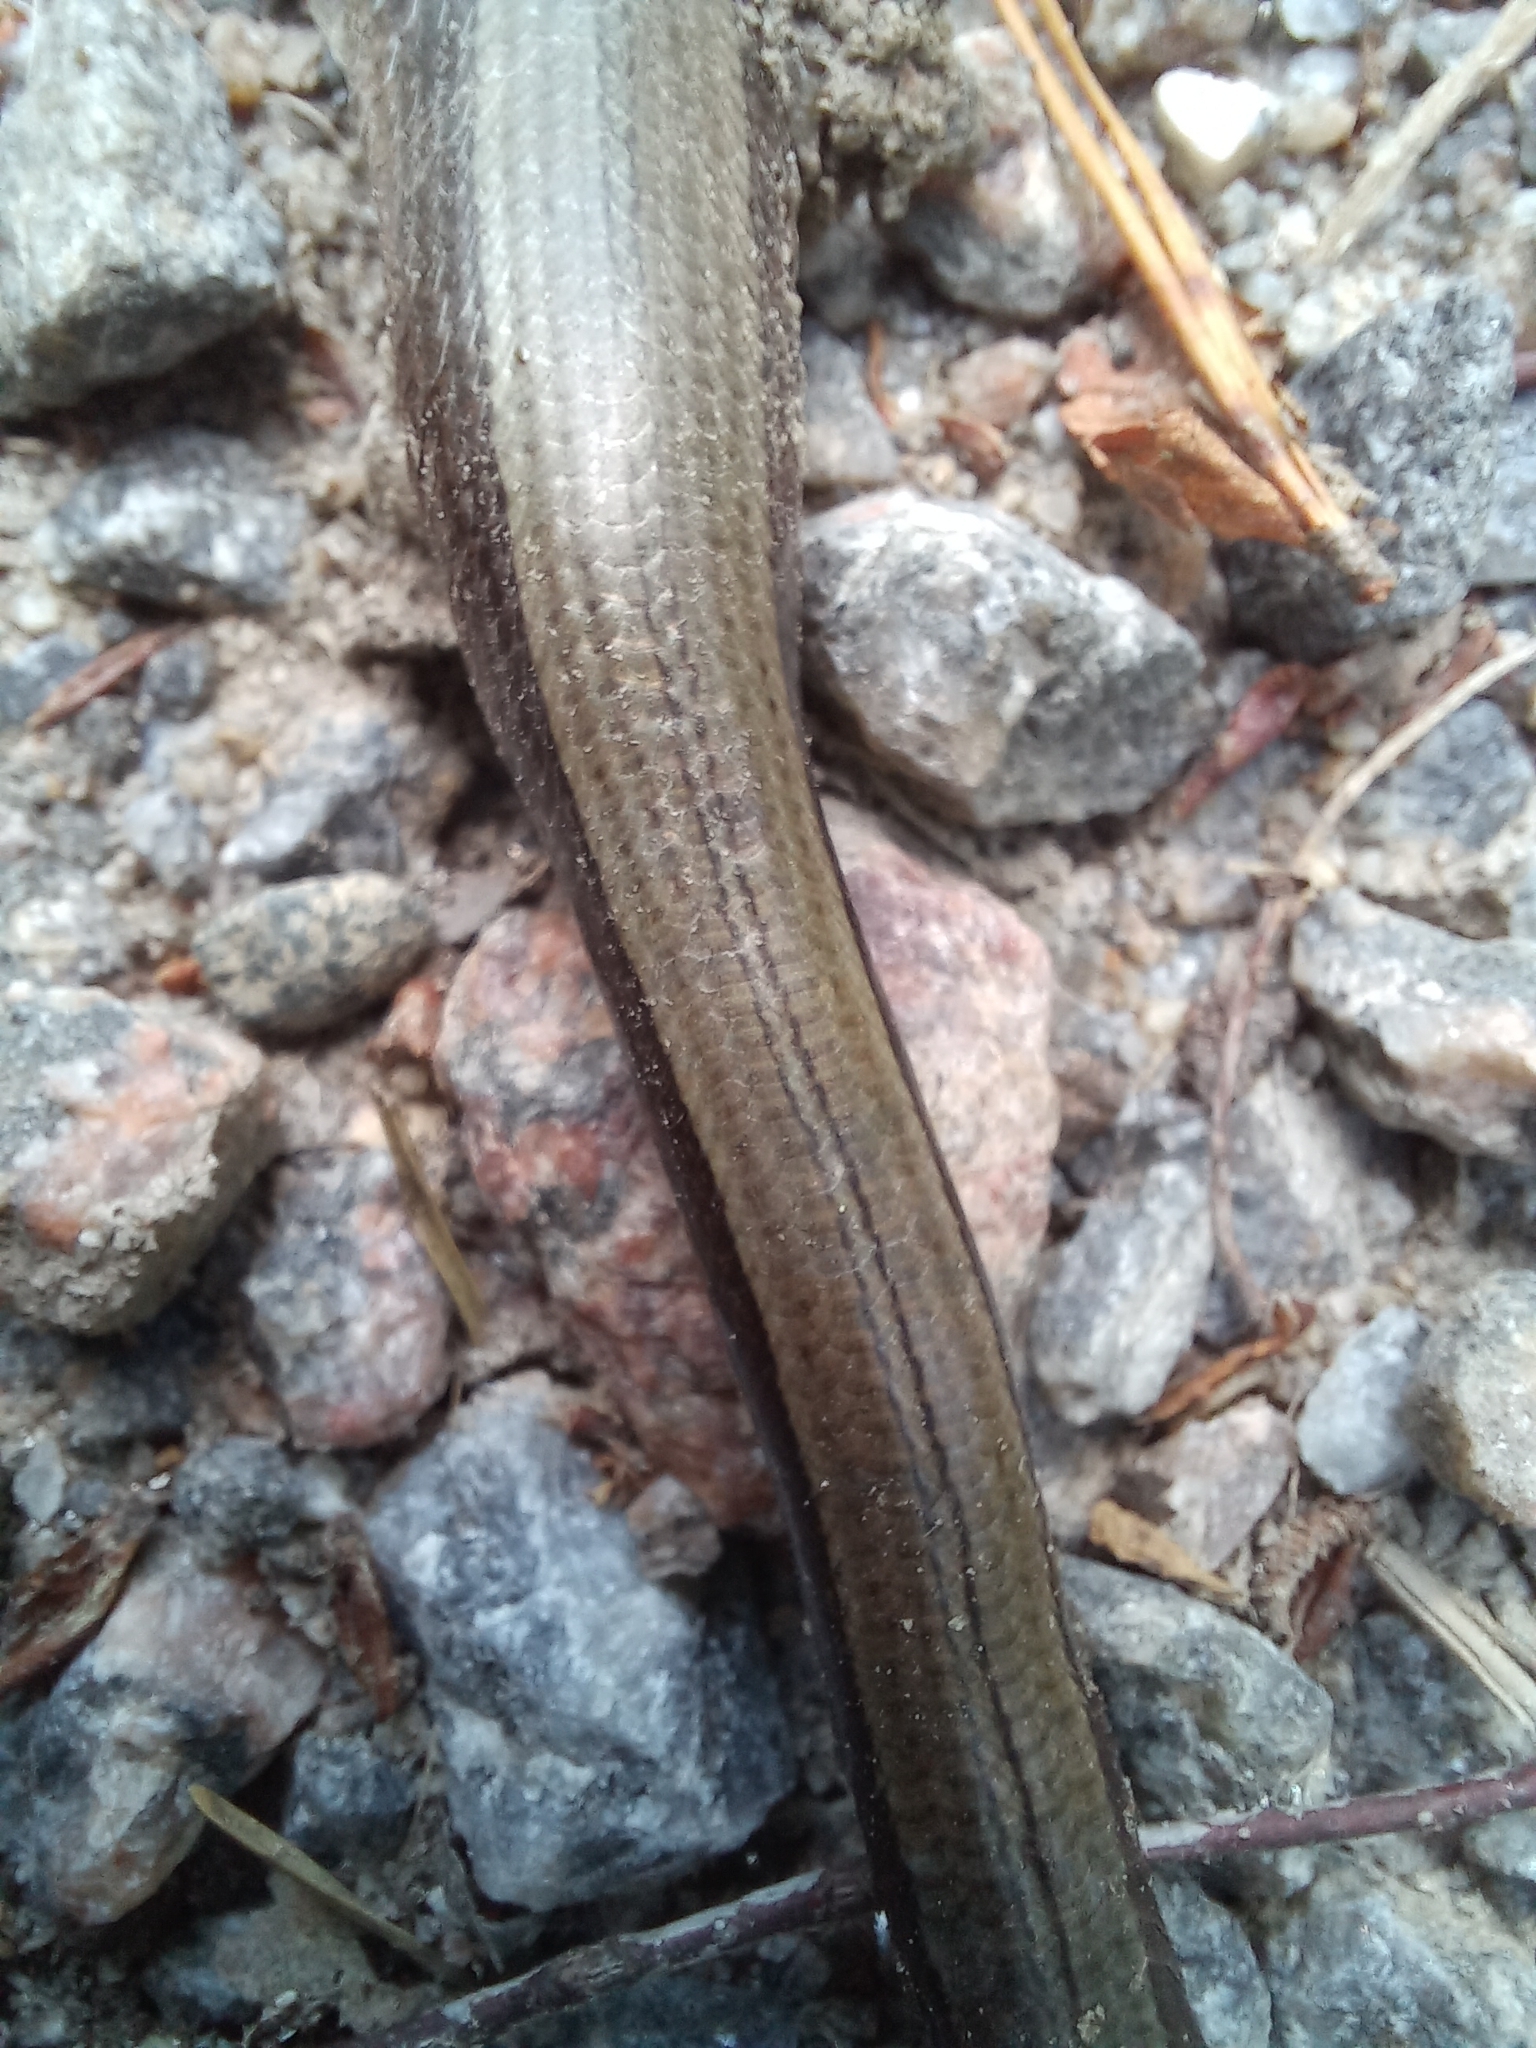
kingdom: Animalia
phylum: Chordata
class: Squamata
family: Anguidae
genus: Anguis
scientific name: Anguis colchica
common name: Slow worm
